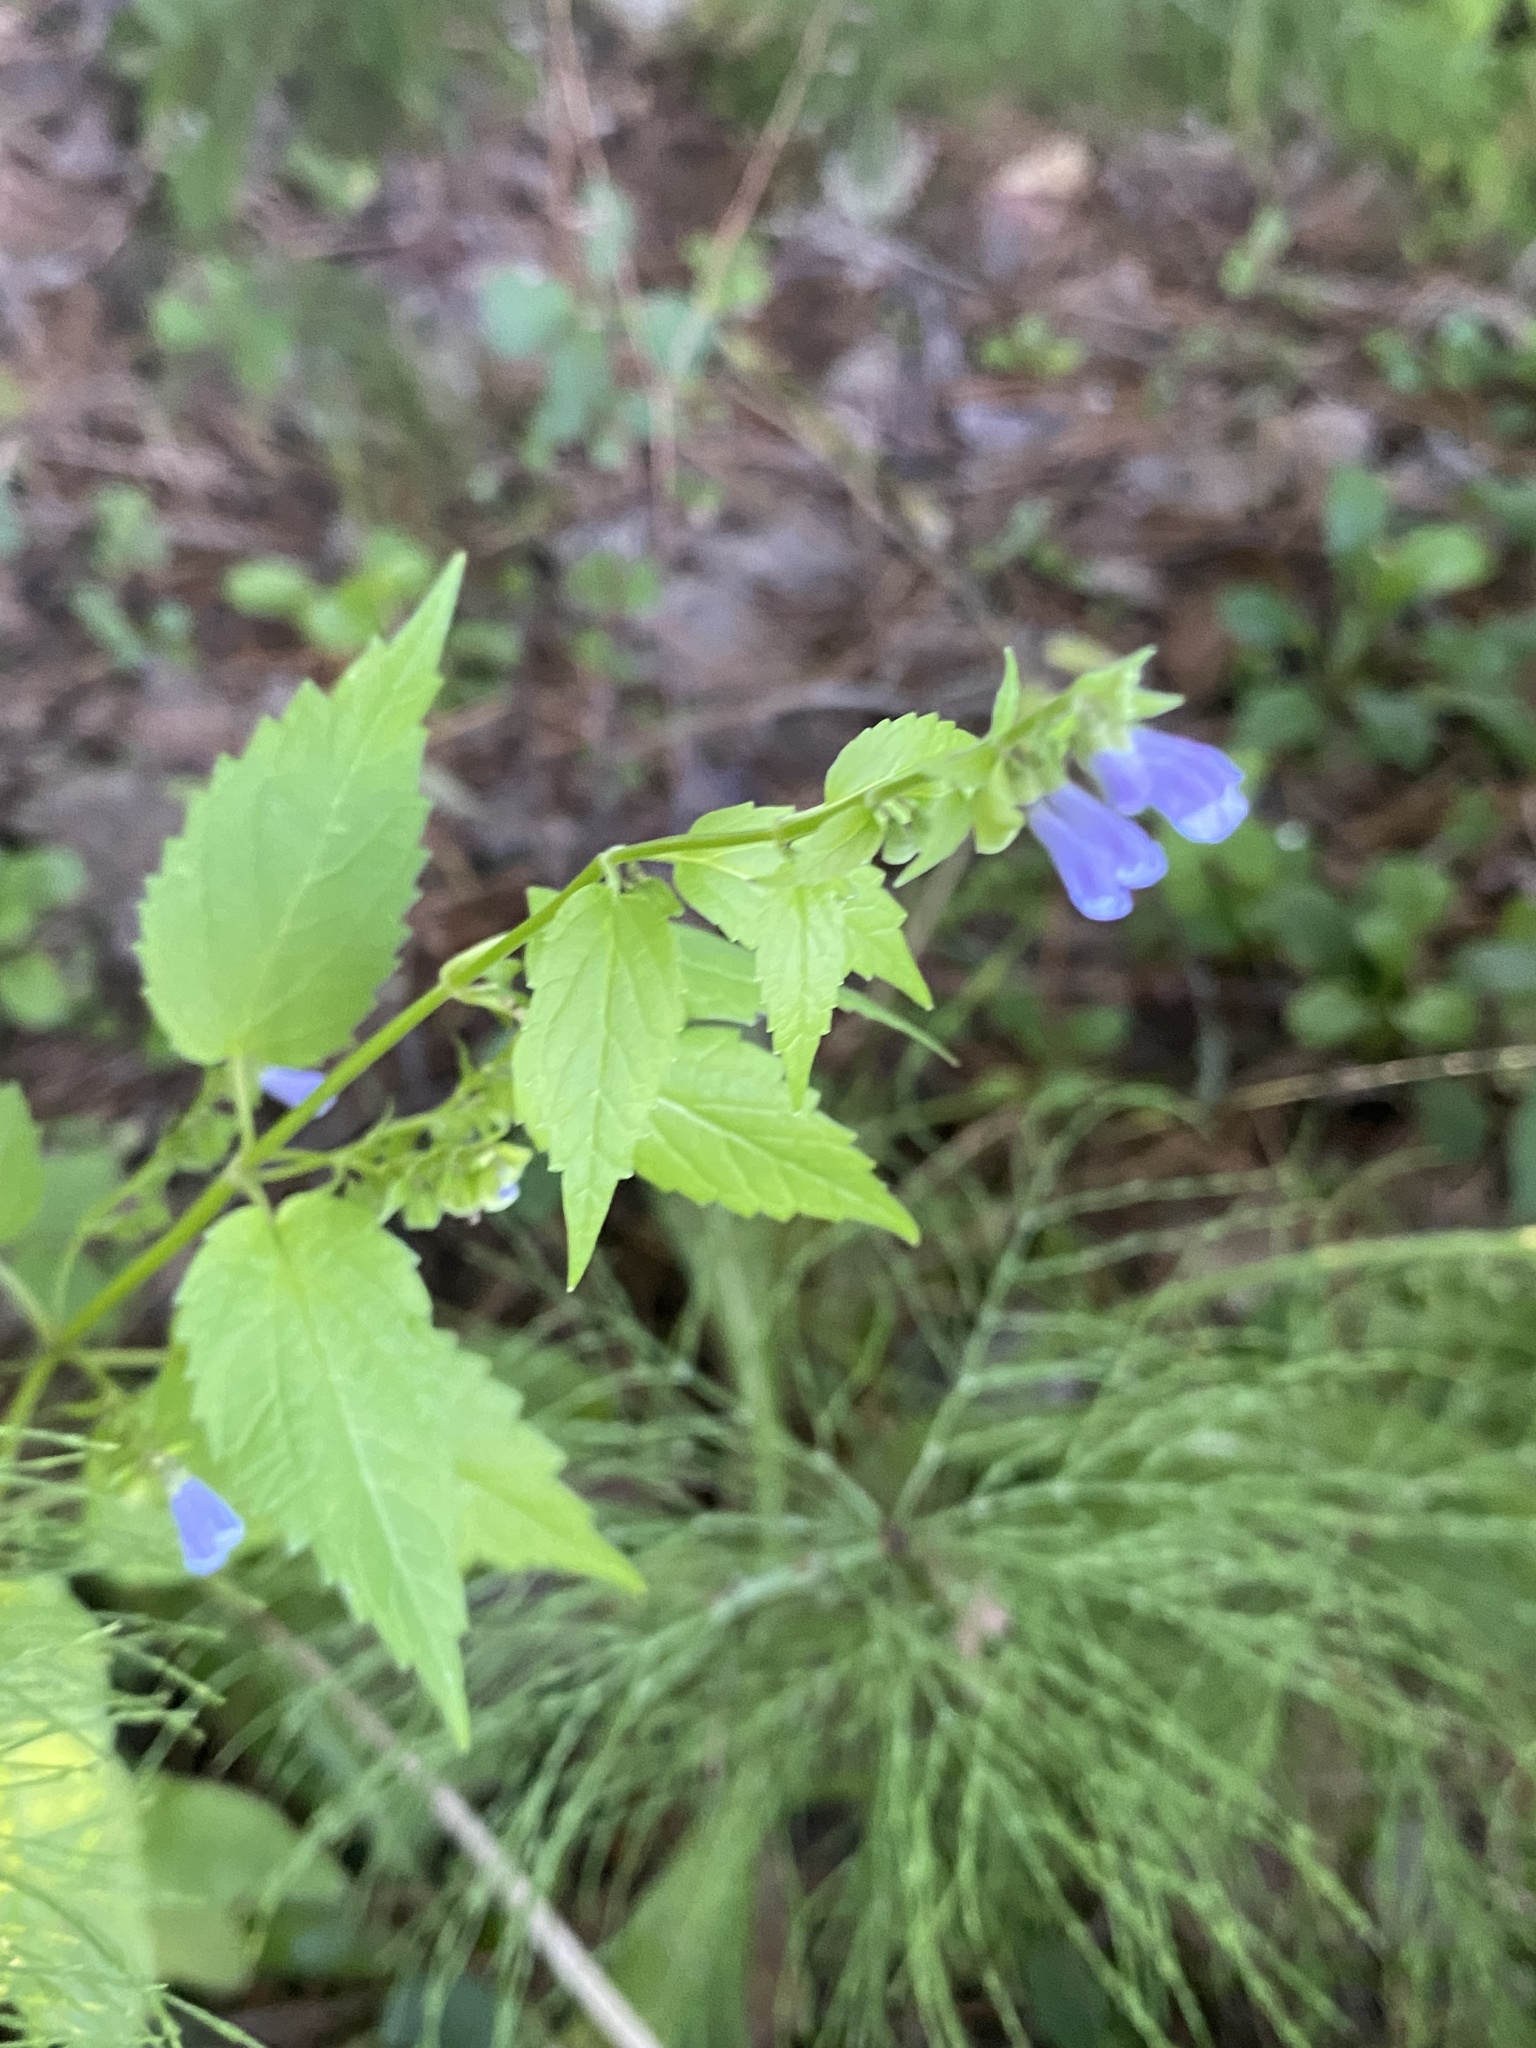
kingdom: Plantae
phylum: Tracheophyta
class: Magnoliopsida
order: Lamiales
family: Lamiaceae
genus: Scutellaria
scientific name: Scutellaria lateriflora
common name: Blue skullcap
